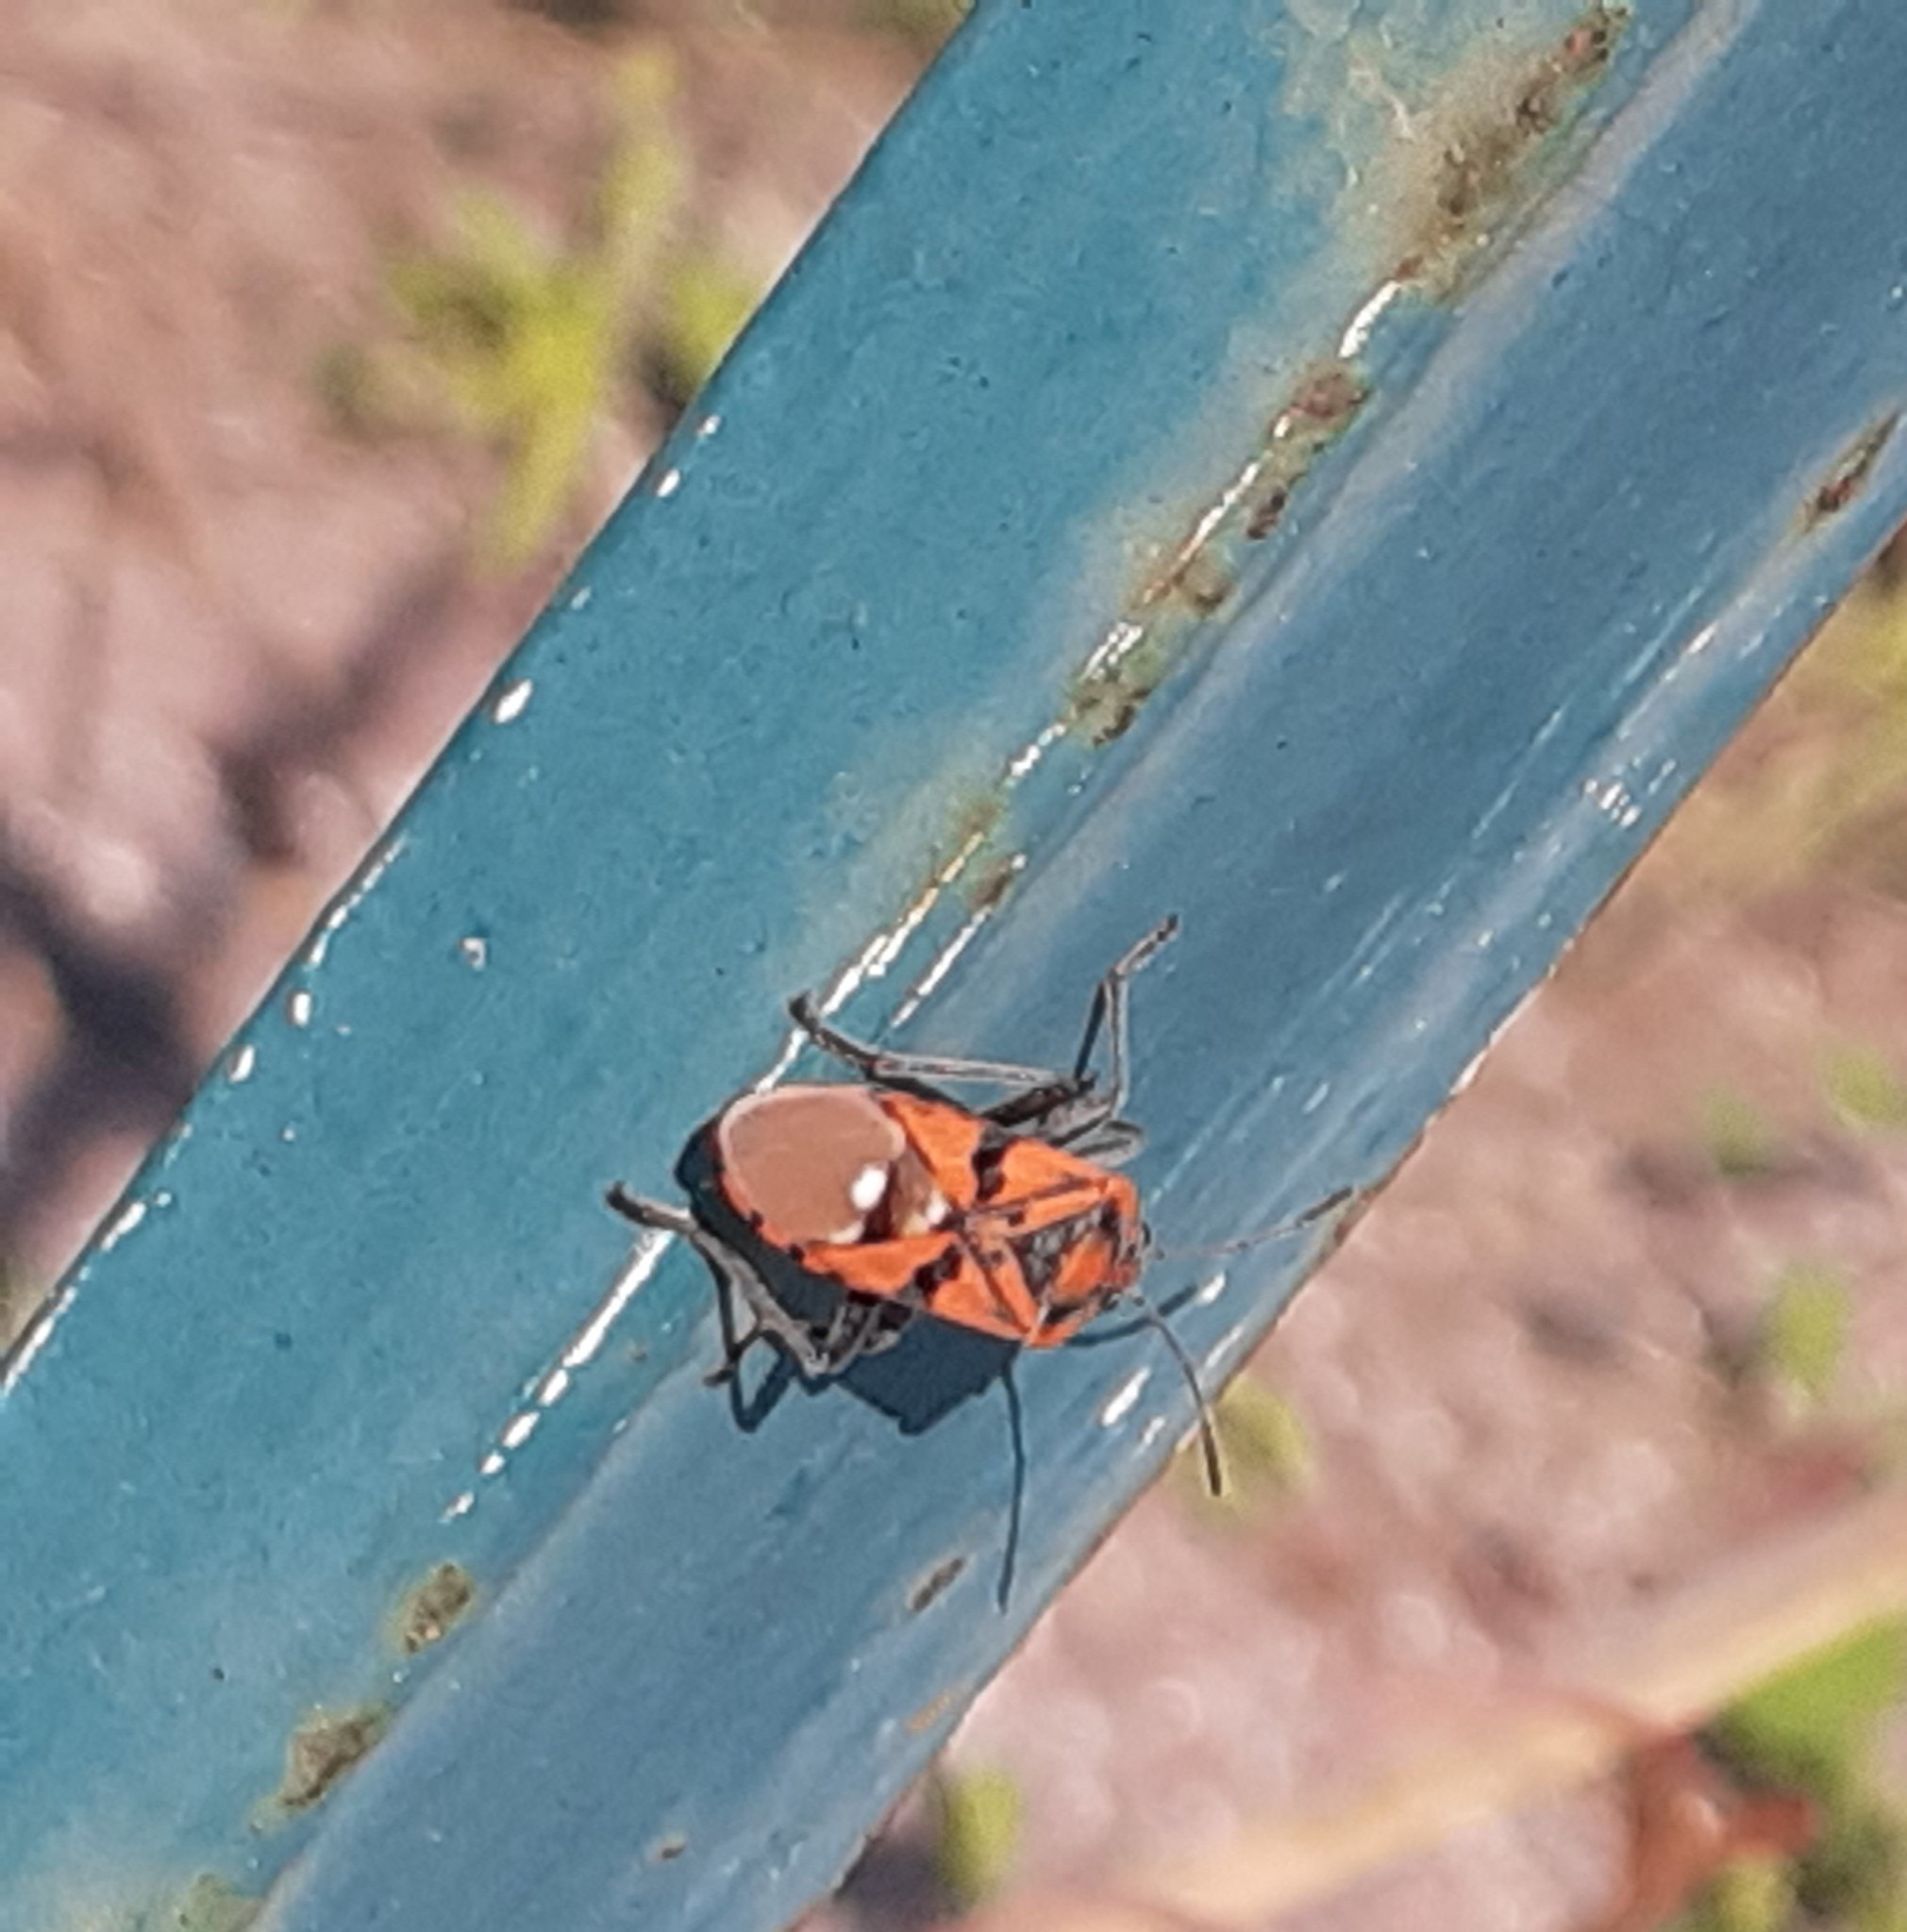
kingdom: Animalia
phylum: Arthropoda
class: Insecta
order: Hemiptera
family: Lygaeidae
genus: Spilostethus
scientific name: Spilostethus pandurus
